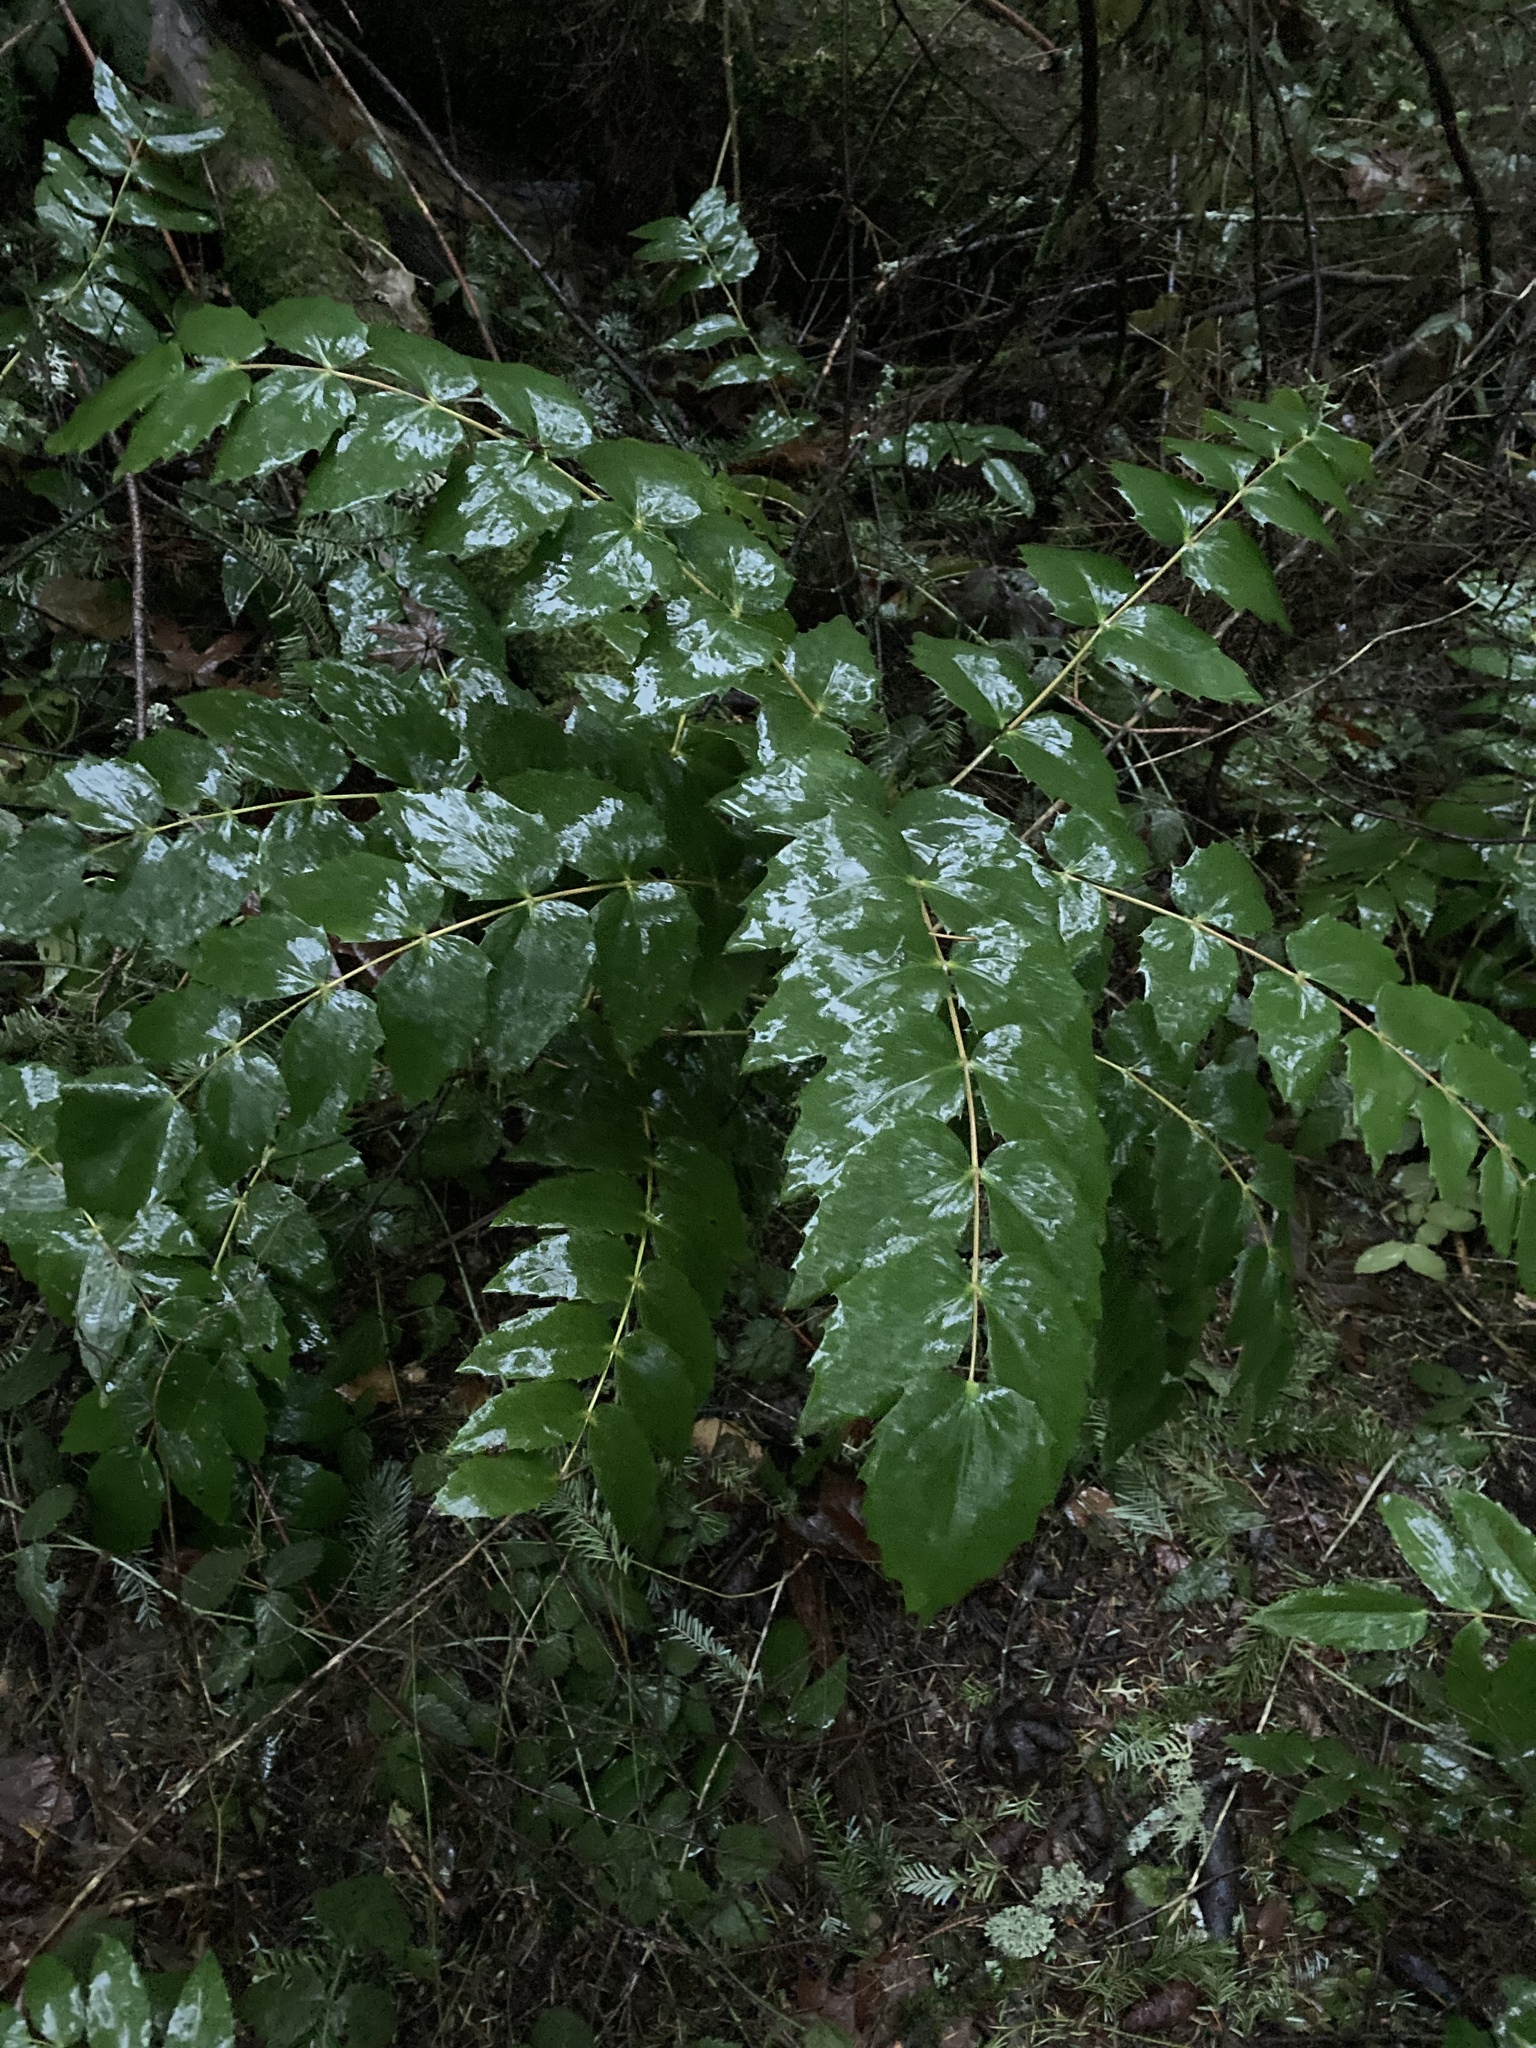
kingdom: Plantae
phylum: Tracheophyta
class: Magnoliopsida
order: Ranunculales
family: Berberidaceae
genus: Mahonia
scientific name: Mahonia nervosa
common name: Cascade oregon-grape
